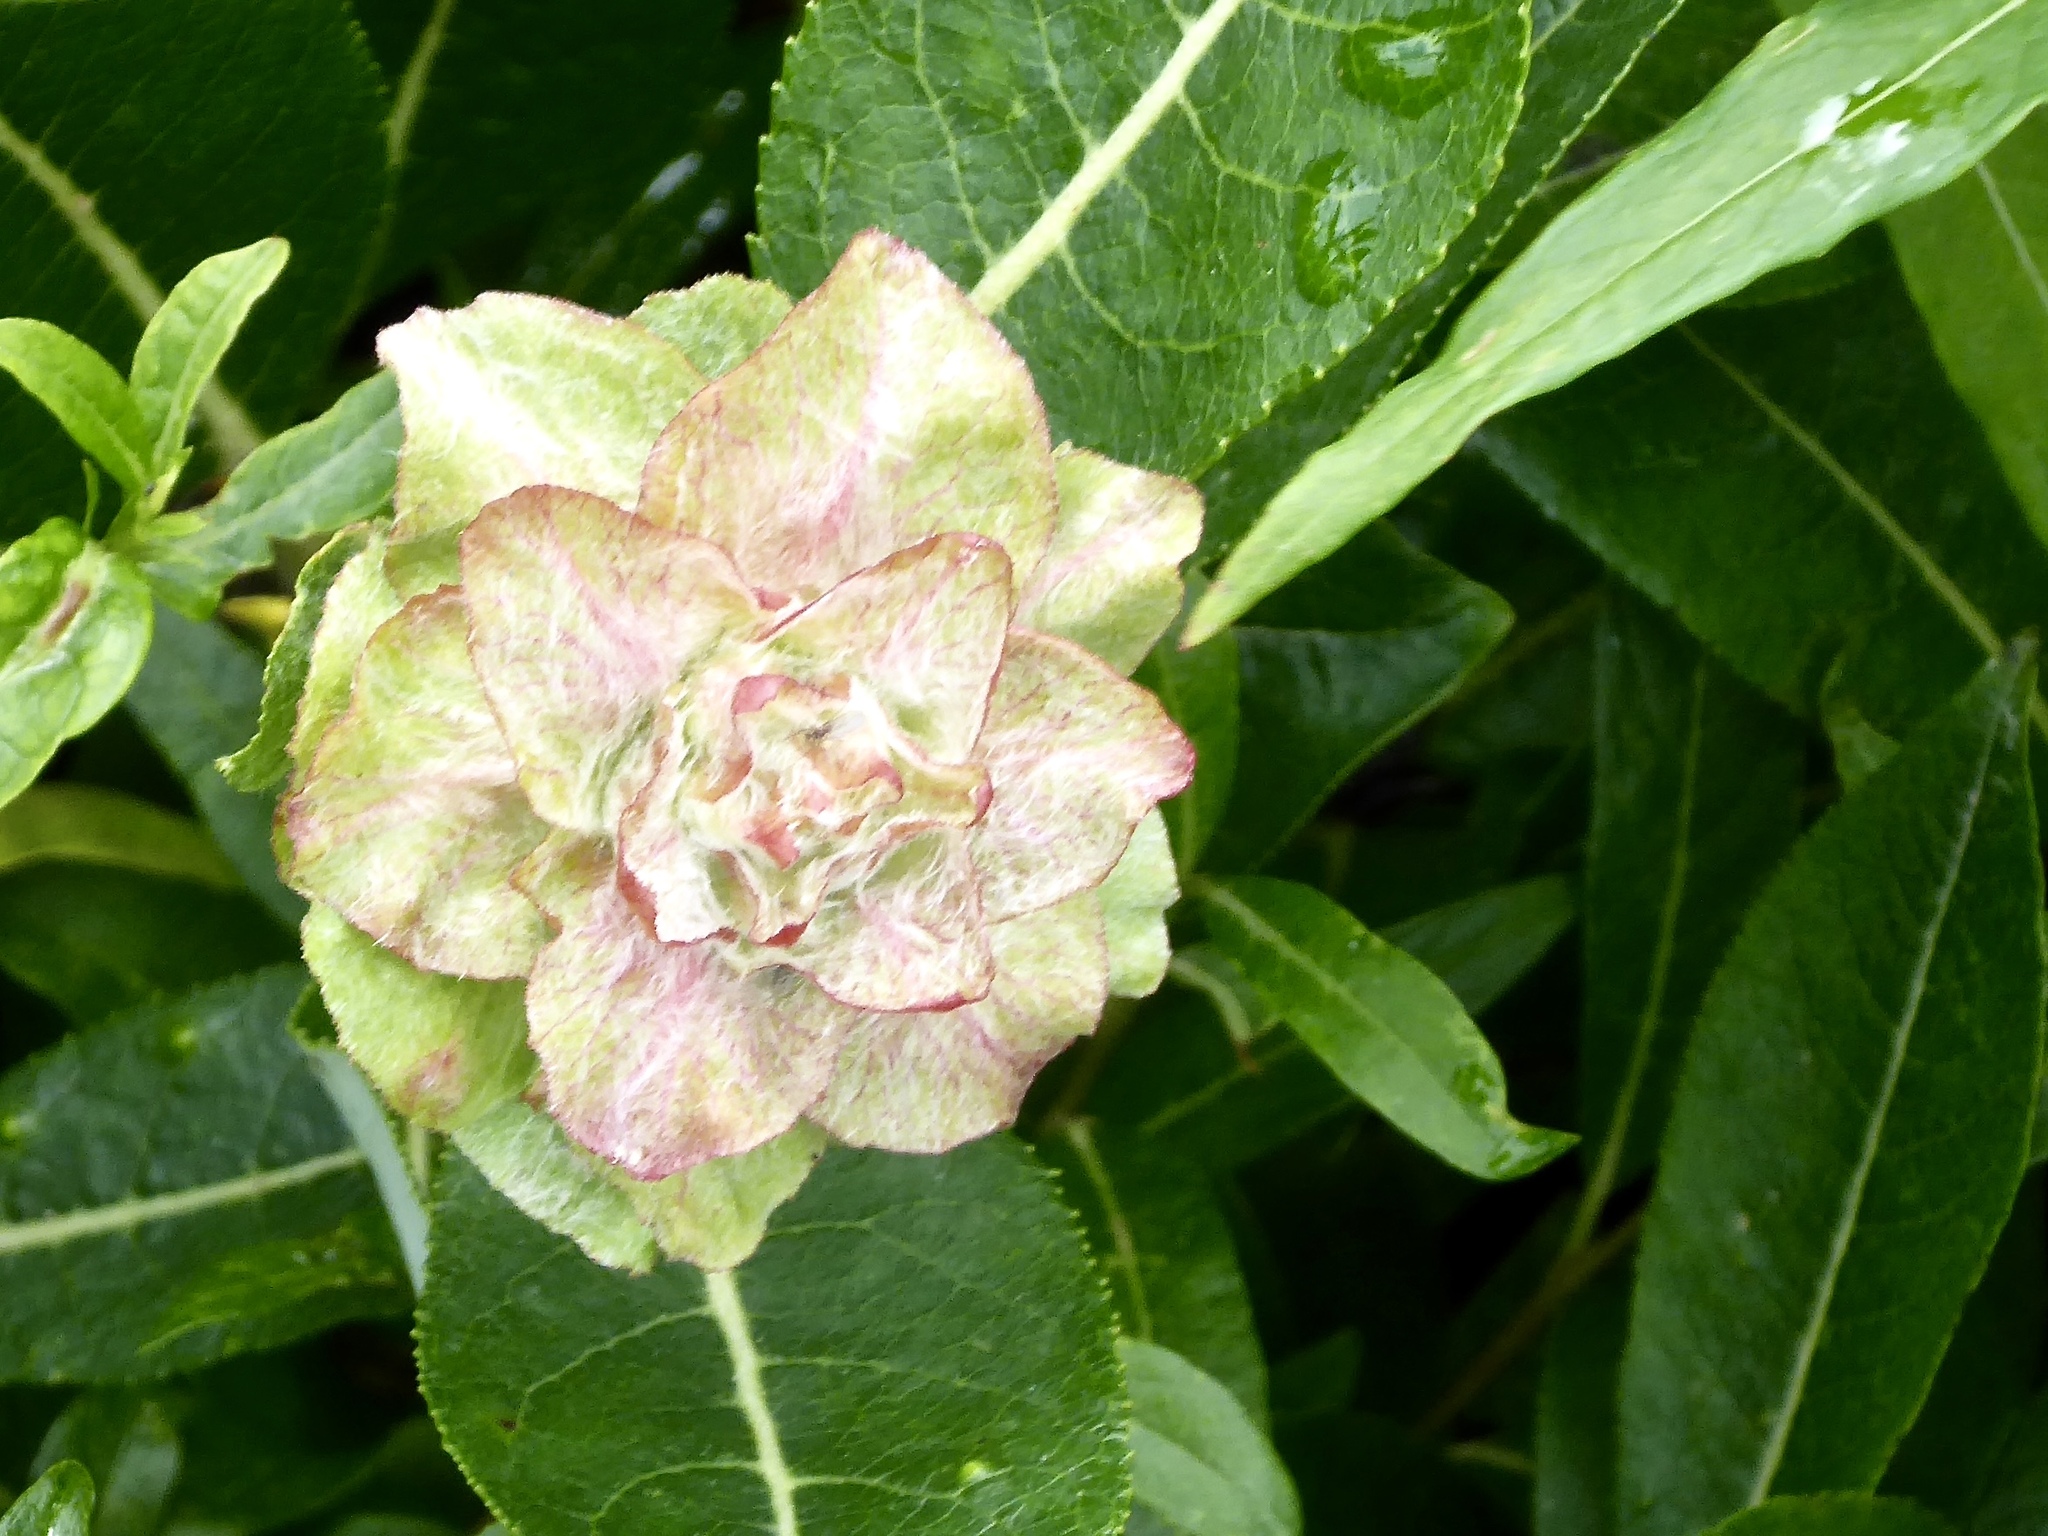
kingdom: Animalia
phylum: Arthropoda
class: Insecta
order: Diptera
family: Cecidomyiidae
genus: Rabdophaga
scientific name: Rabdophaga rosaria
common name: Willow rose gall midge
